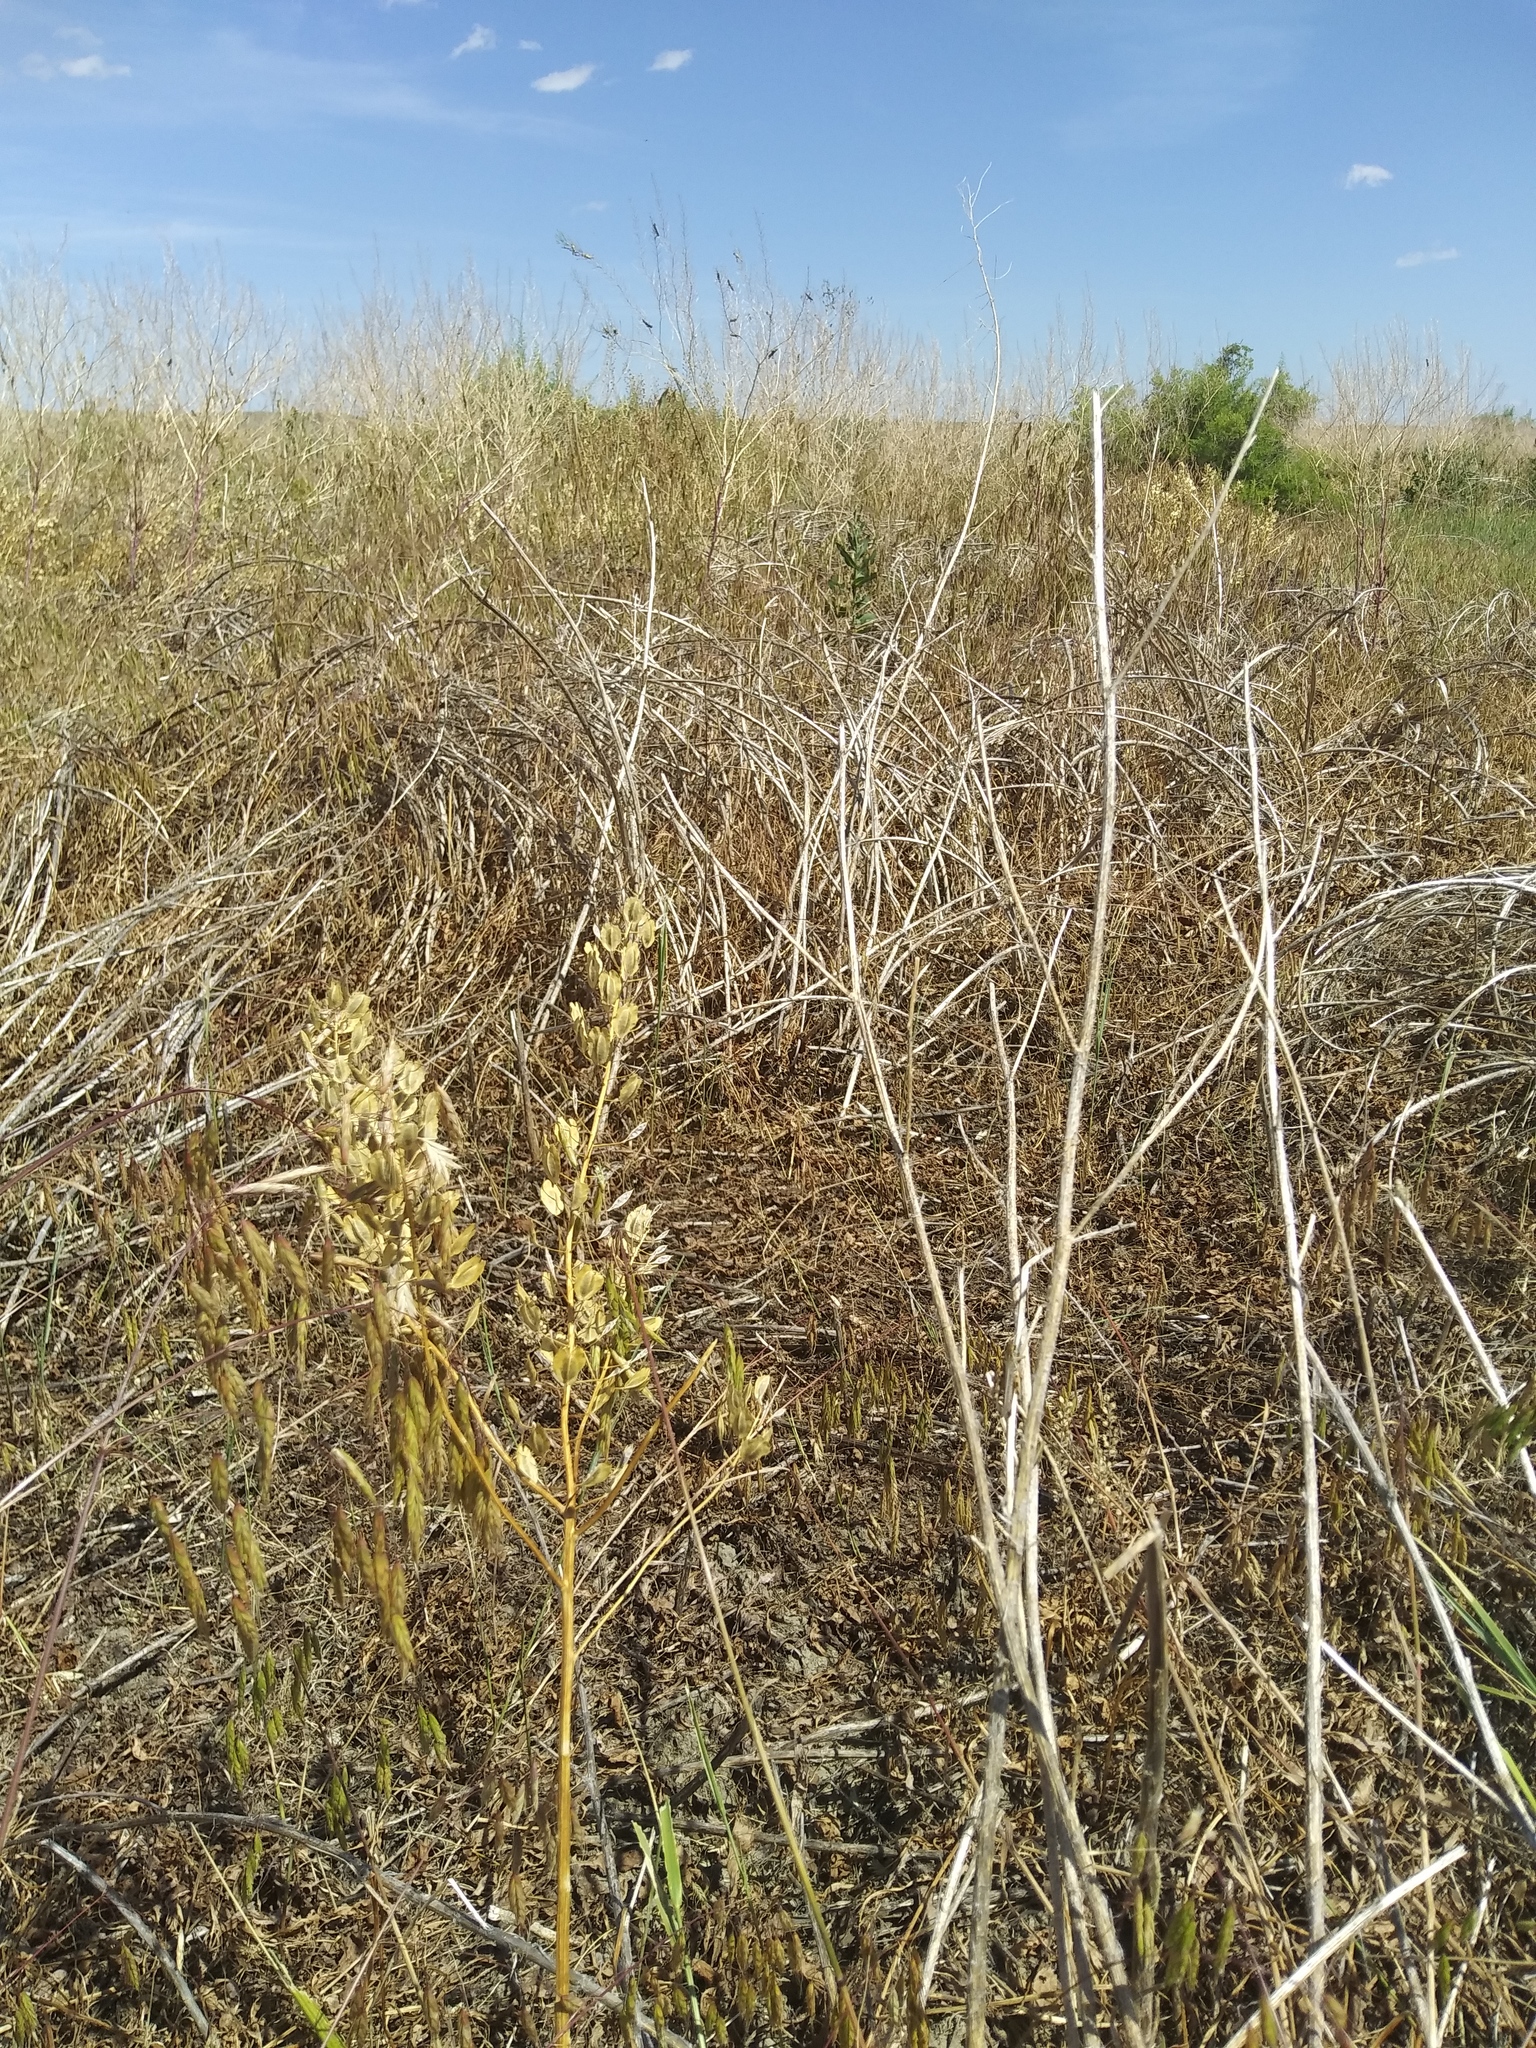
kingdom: Plantae
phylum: Tracheophyta
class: Magnoliopsida
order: Brassicales
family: Brassicaceae
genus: Thlaspi
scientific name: Thlaspi arvense
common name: Field pennycress
